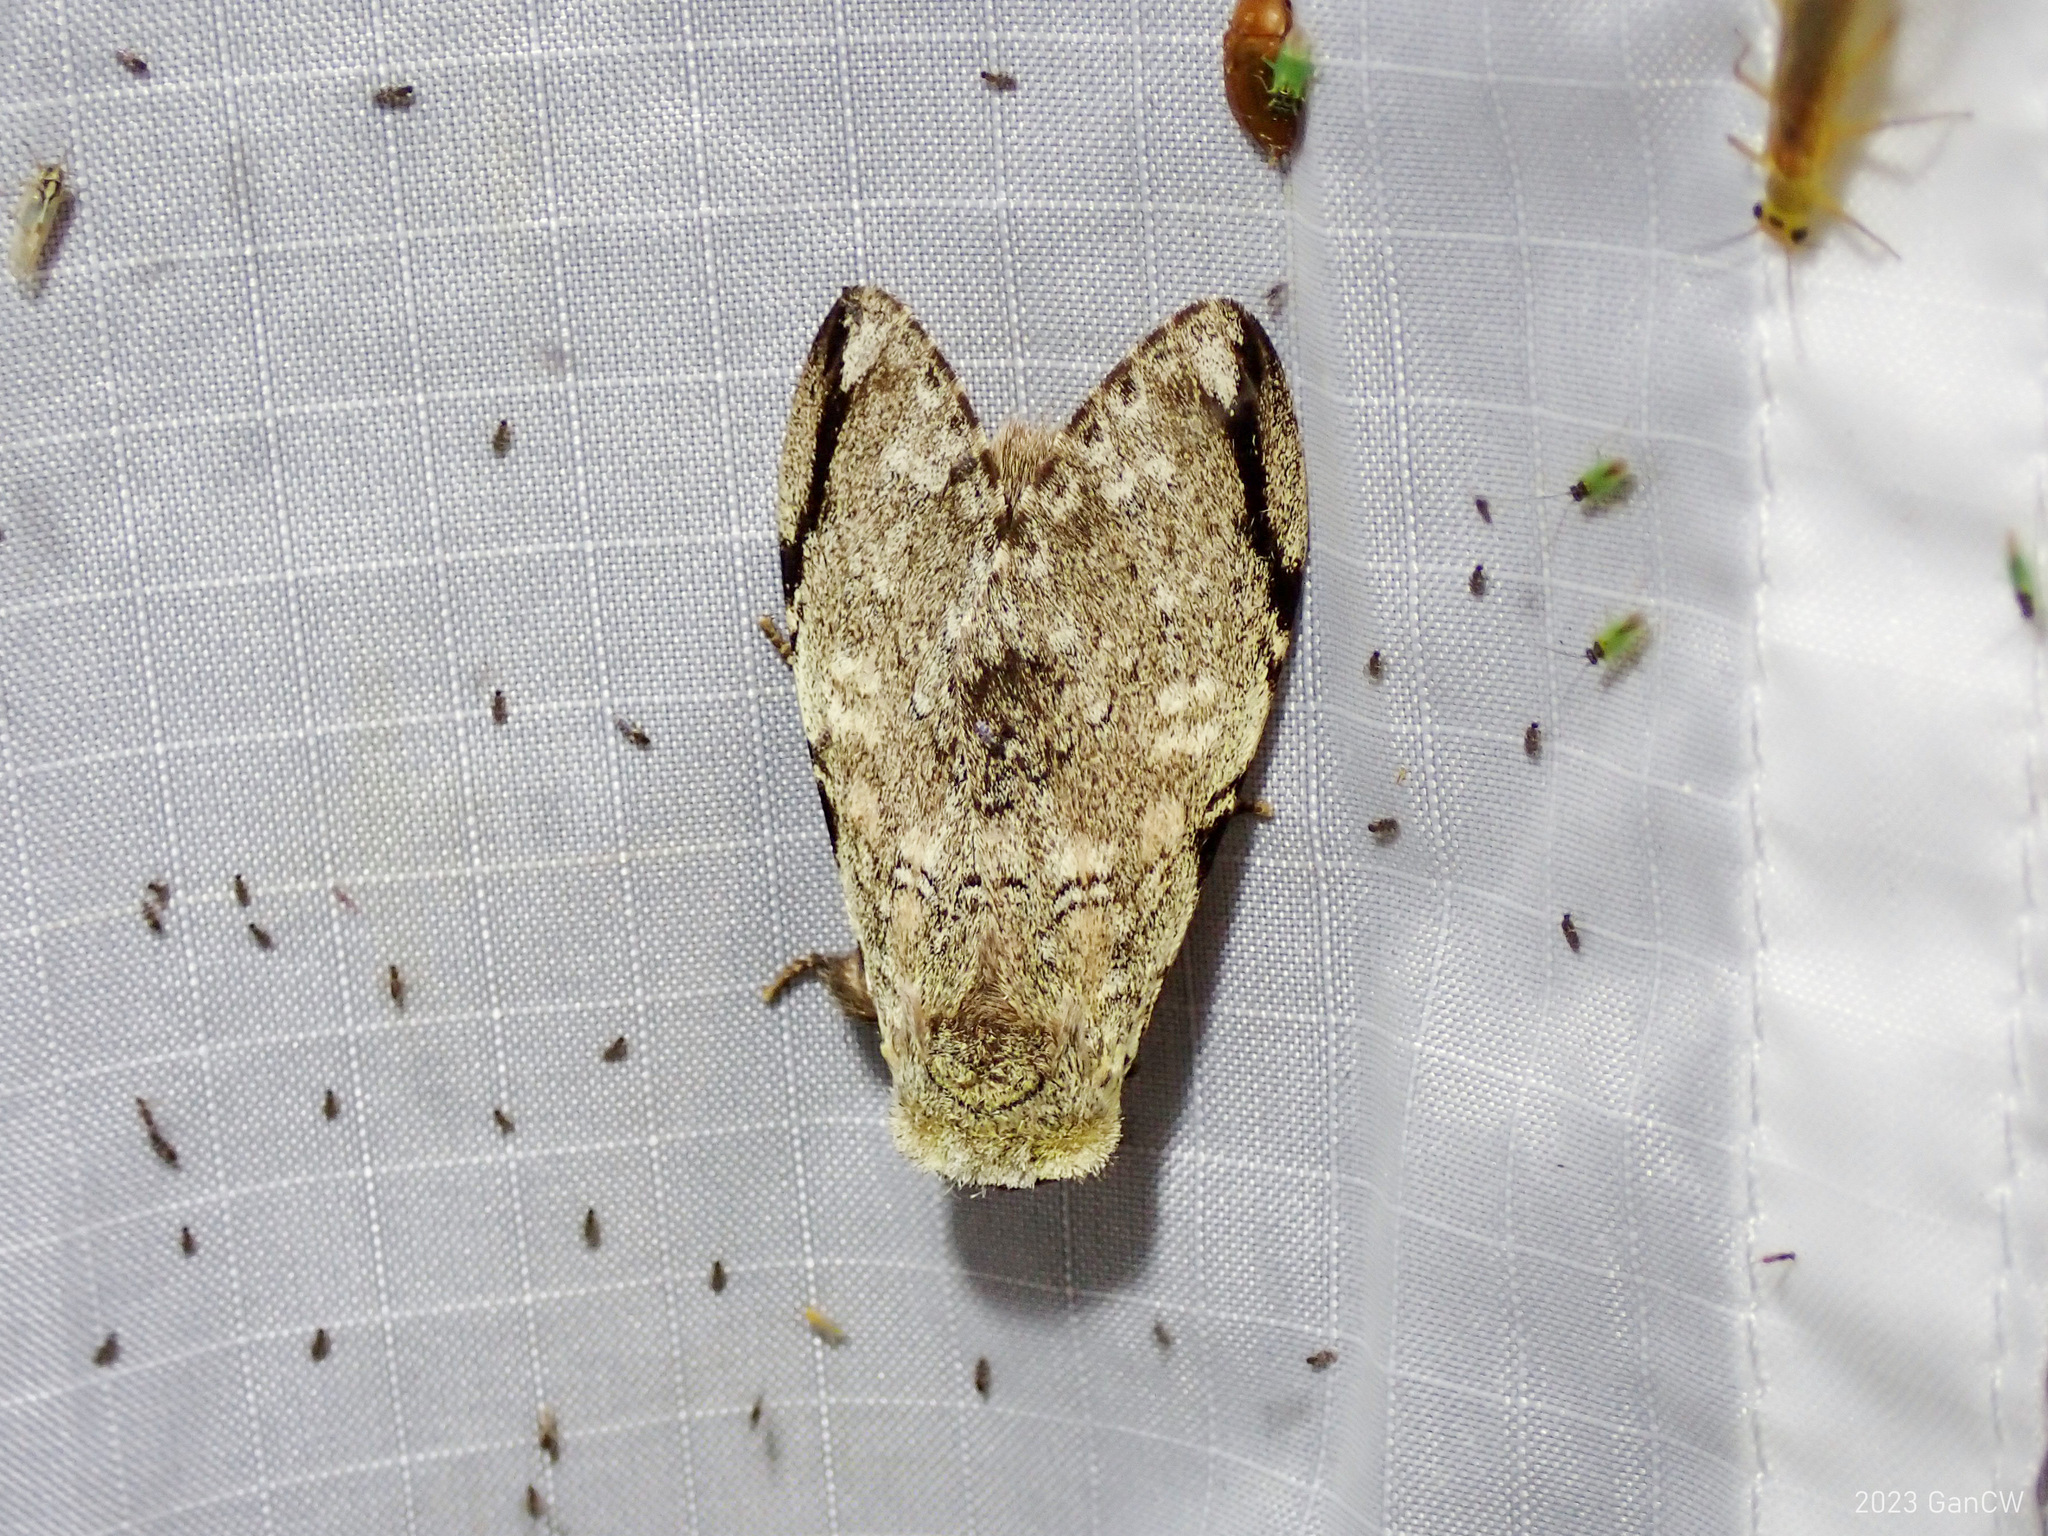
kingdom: Animalia
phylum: Arthropoda
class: Insecta
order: Lepidoptera
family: Notodontidae
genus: Stauroplitis
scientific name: Stauroplitis accomodus
